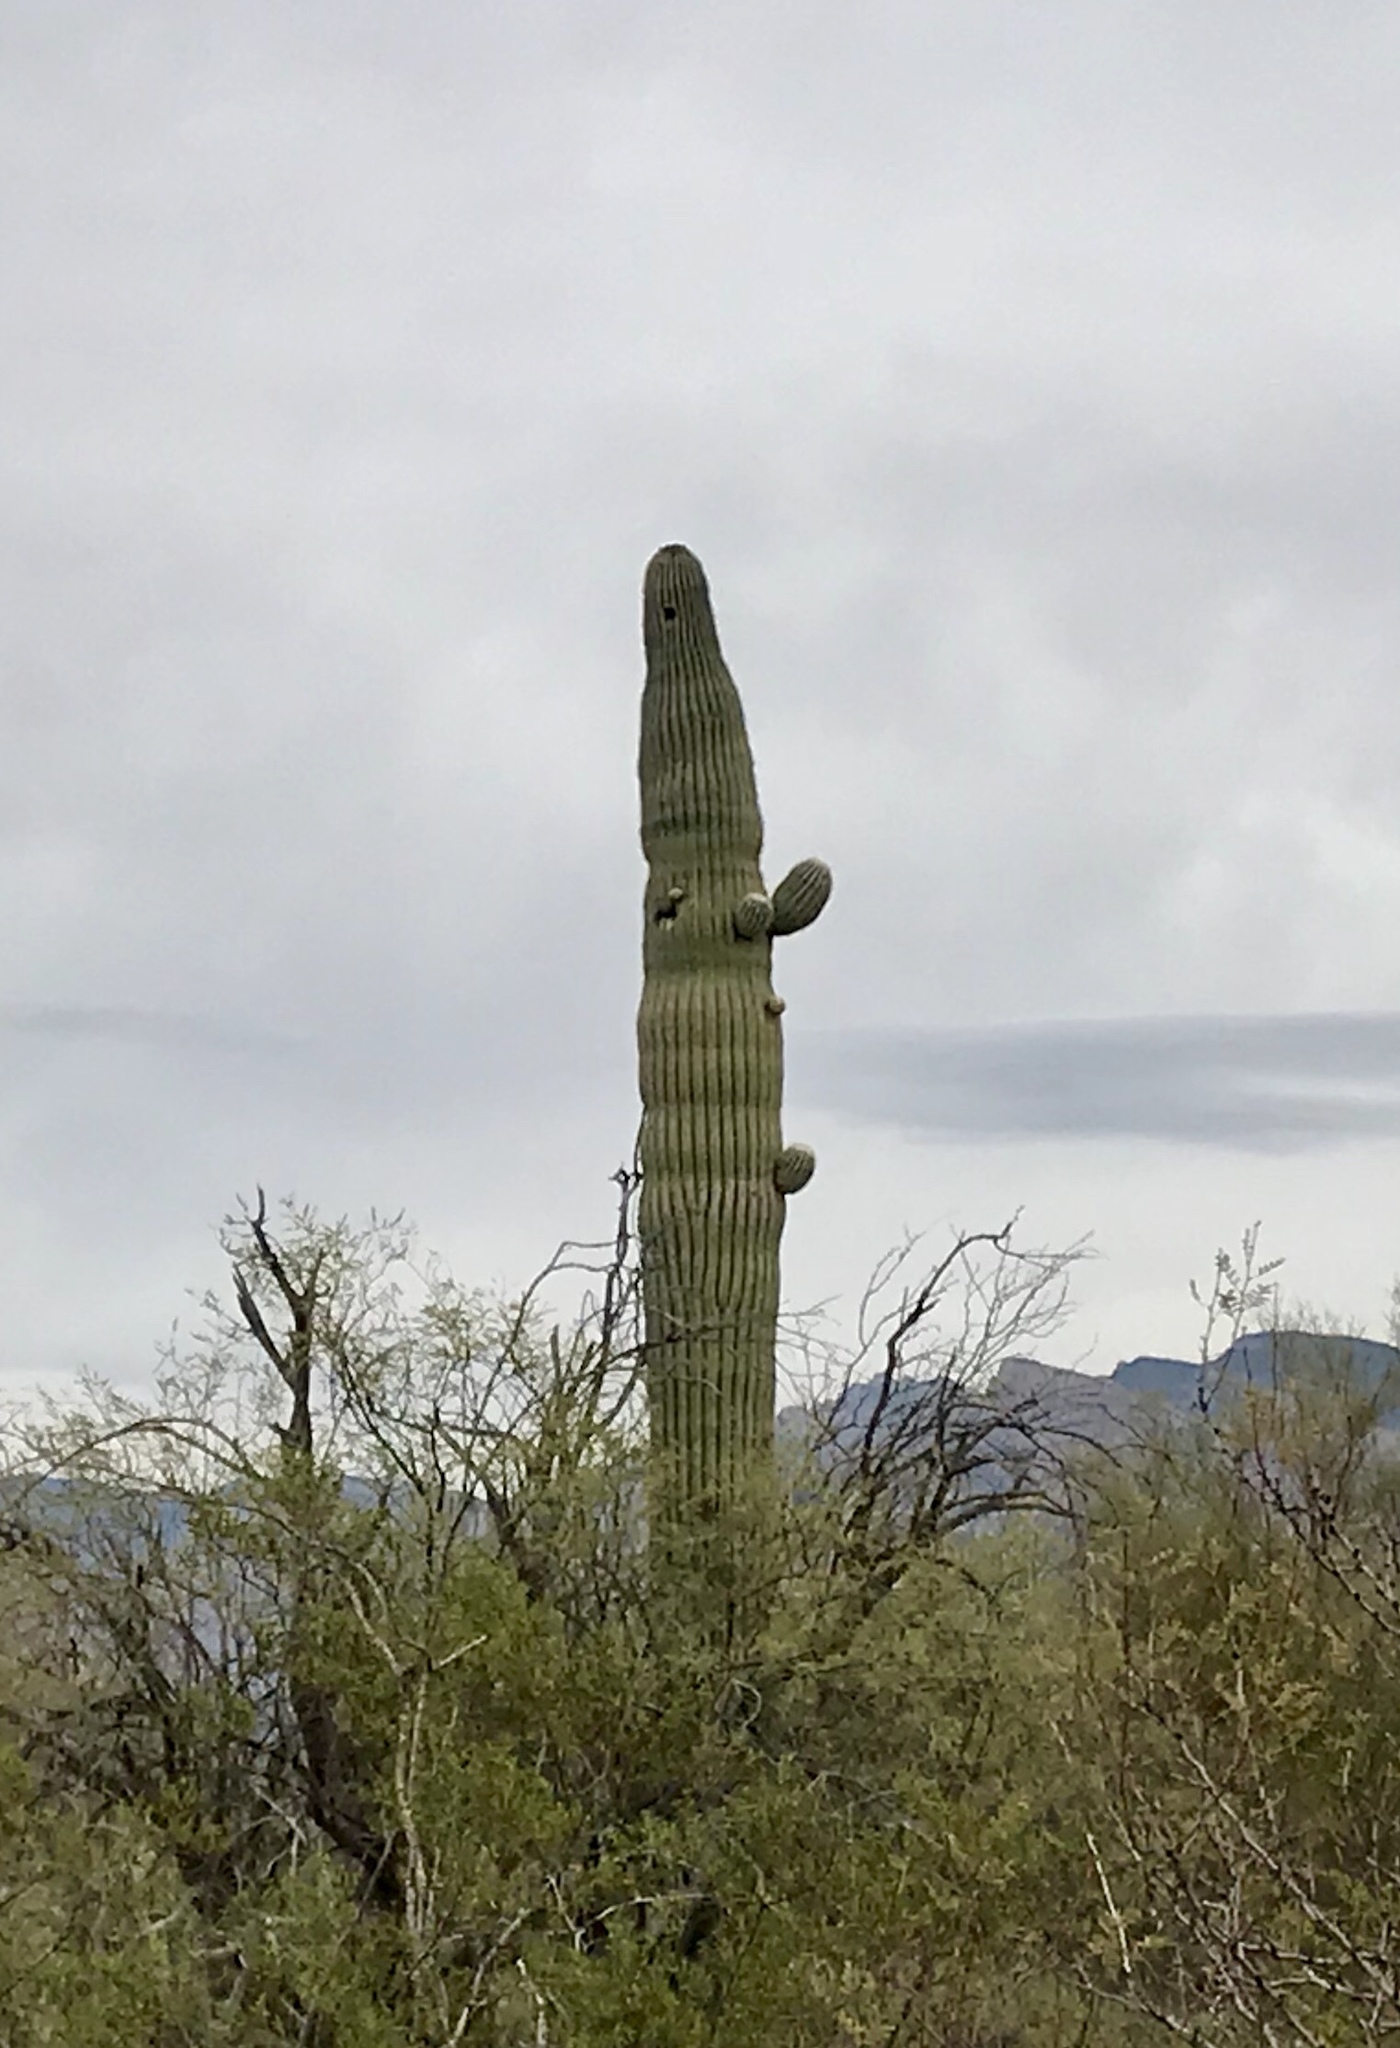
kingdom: Plantae
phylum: Tracheophyta
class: Magnoliopsida
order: Caryophyllales
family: Cactaceae
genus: Carnegiea
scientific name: Carnegiea gigantea
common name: Saguaro
